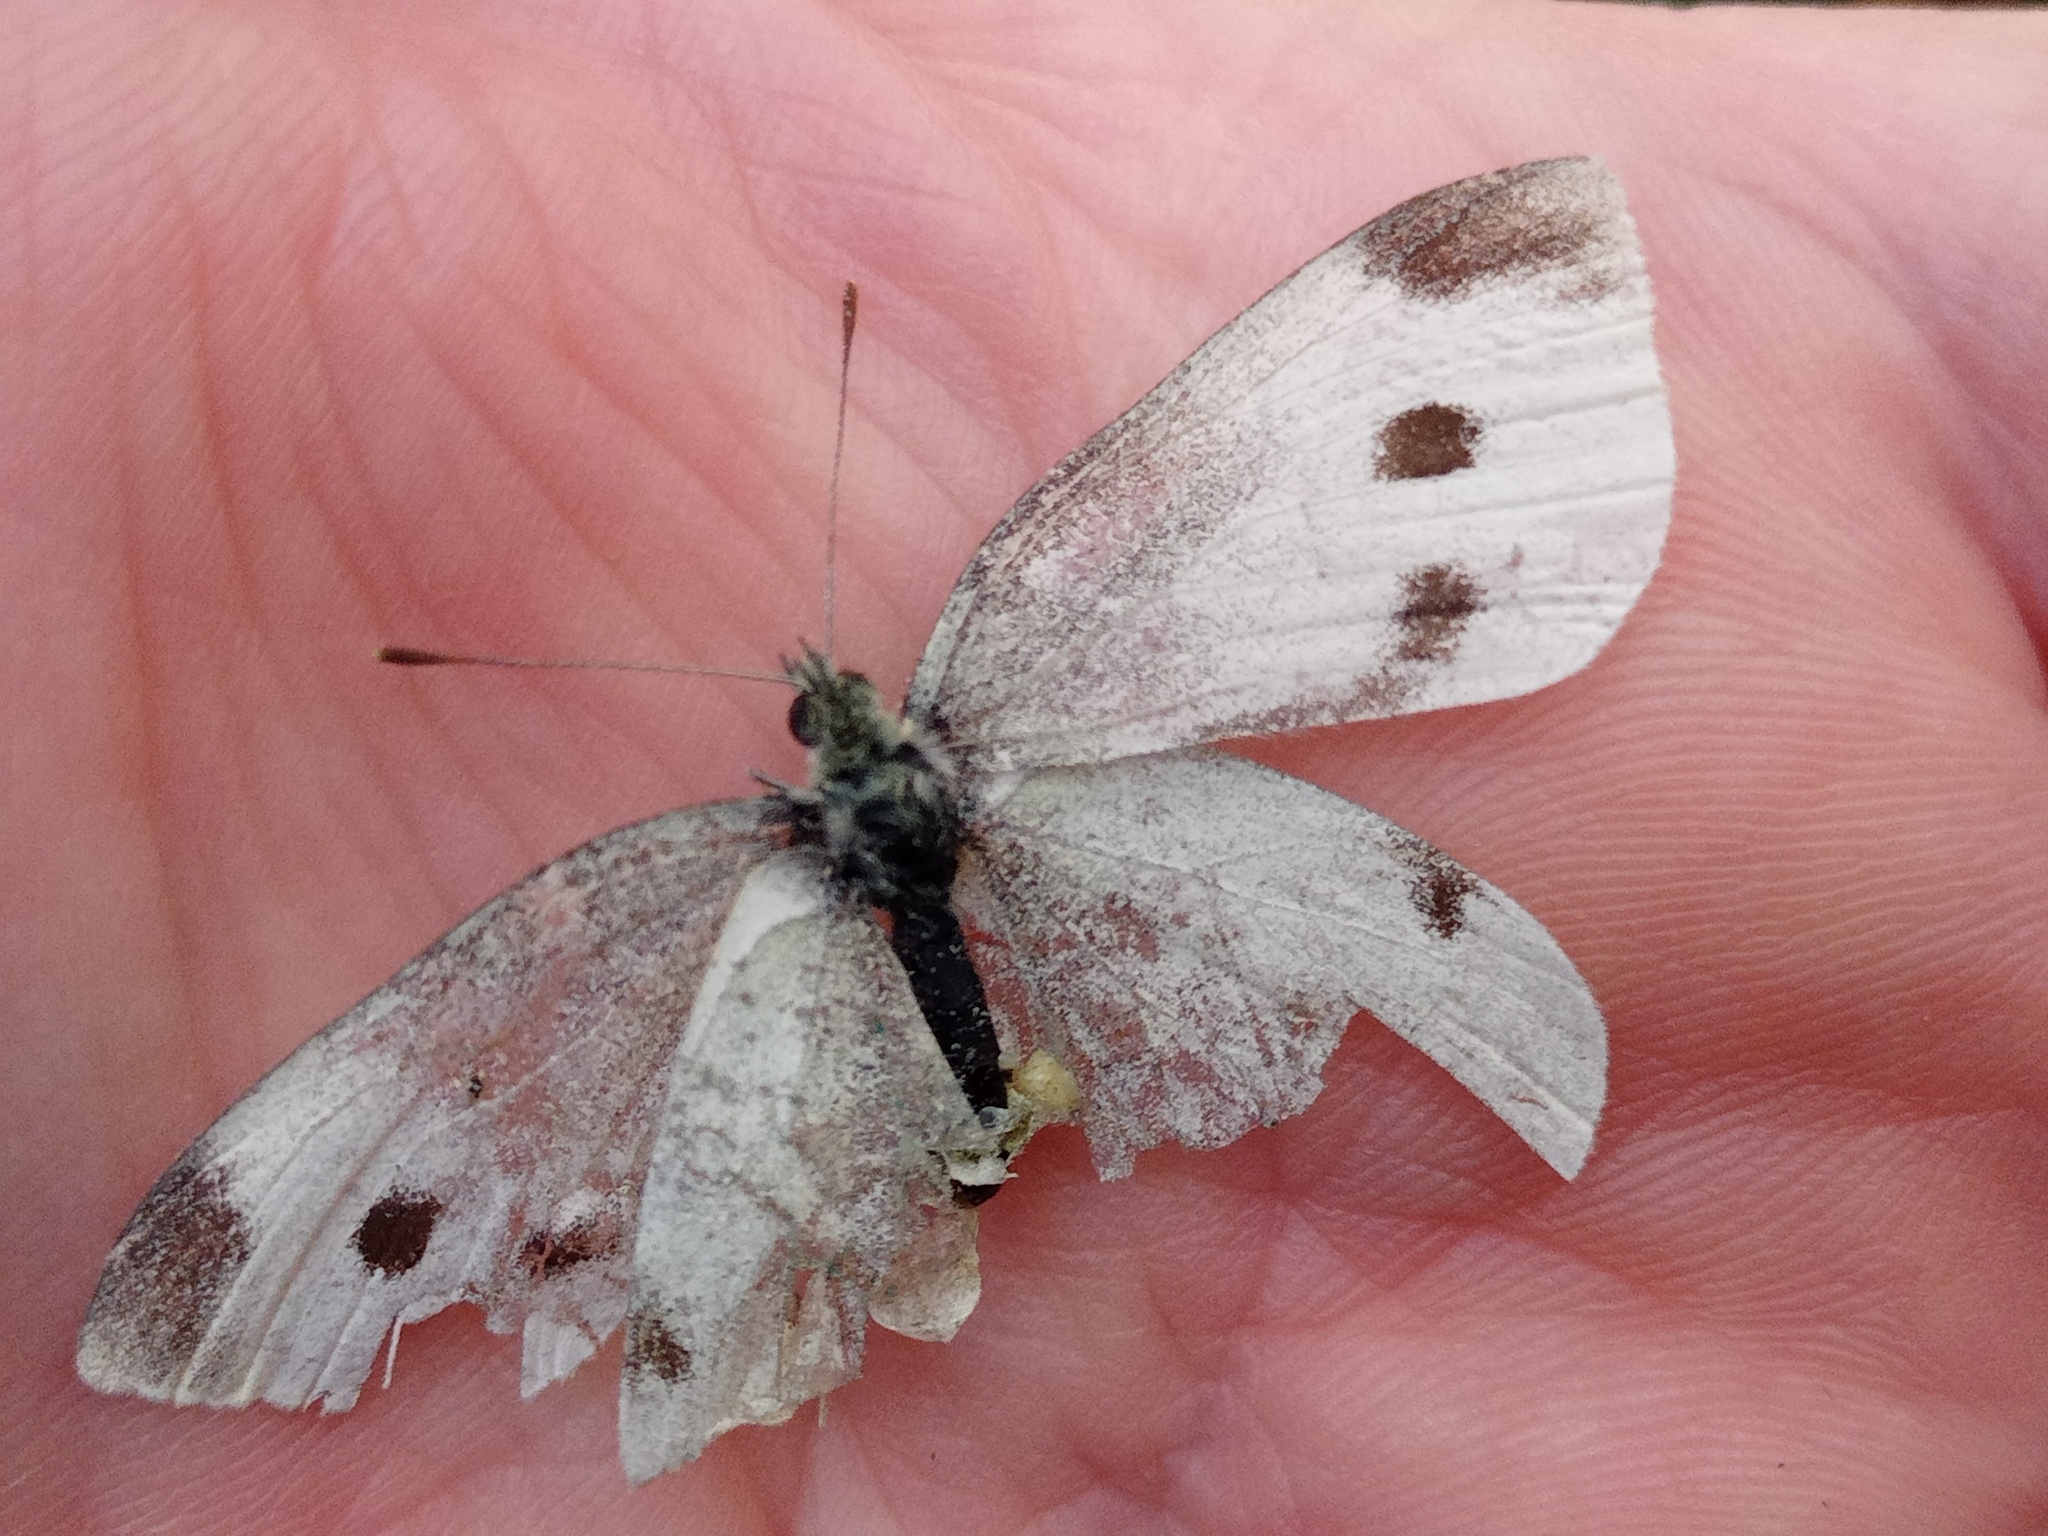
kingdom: Animalia
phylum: Arthropoda
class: Insecta
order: Lepidoptera
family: Pieridae
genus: Pieris
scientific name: Pieris rapae
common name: Small white
